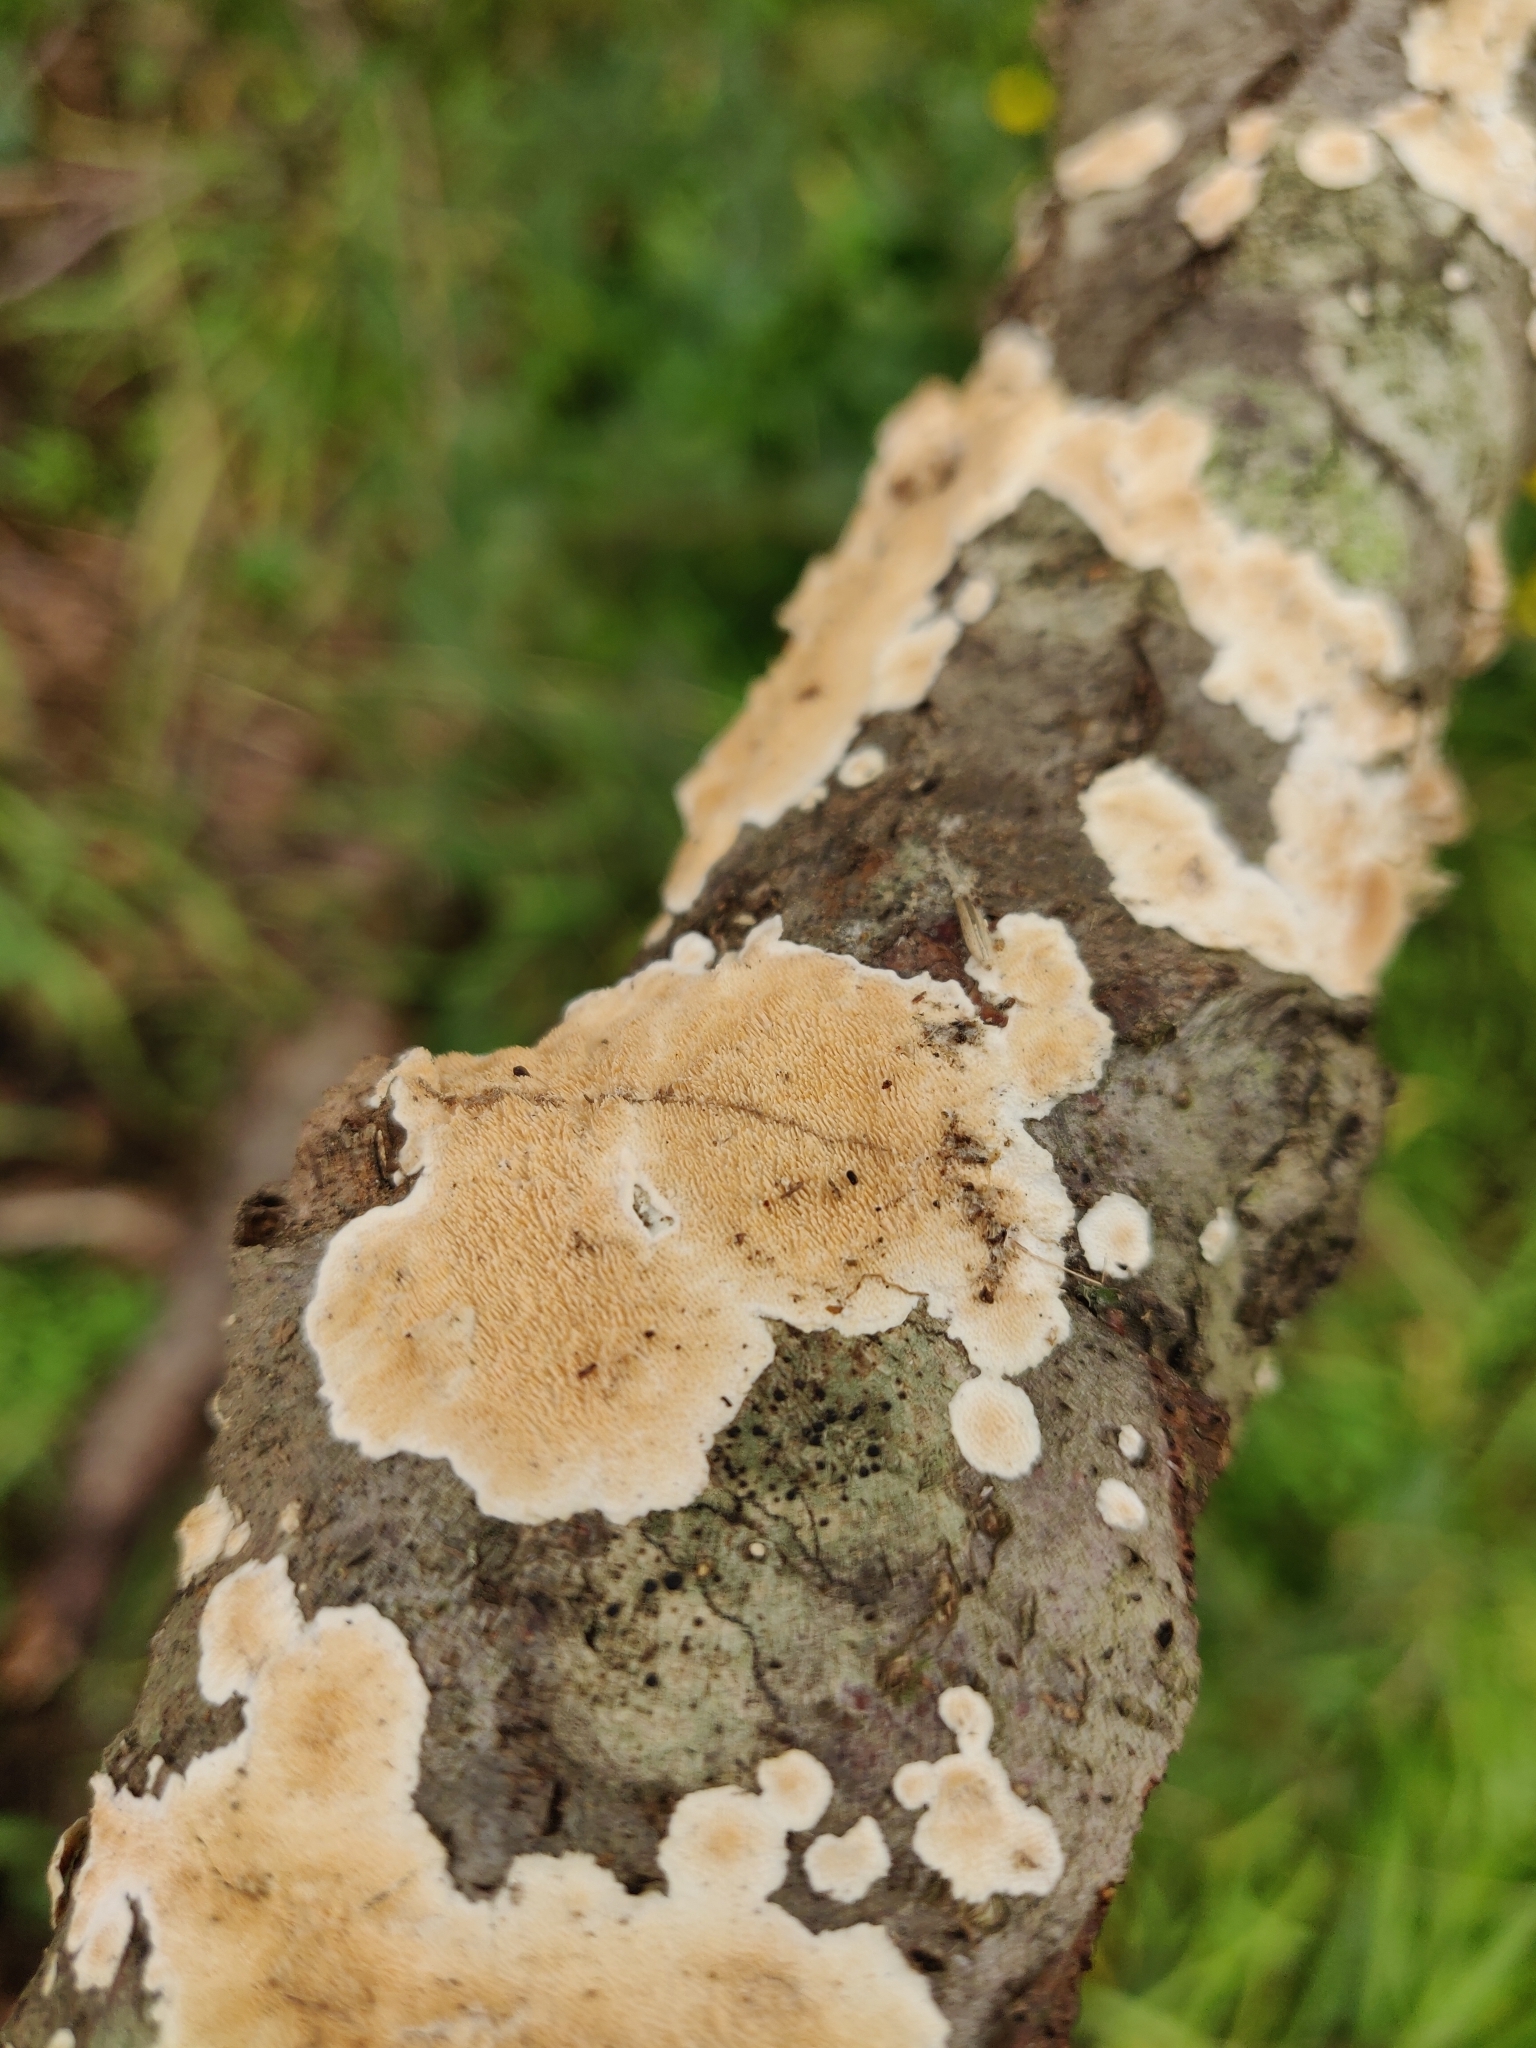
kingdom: Fungi
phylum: Basidiomycota
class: Agaricomycetes
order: Polyporales
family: Steccherinaceae
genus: Steccherinum
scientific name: Steccherinum ochraceum
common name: Ochre spreading tooth
